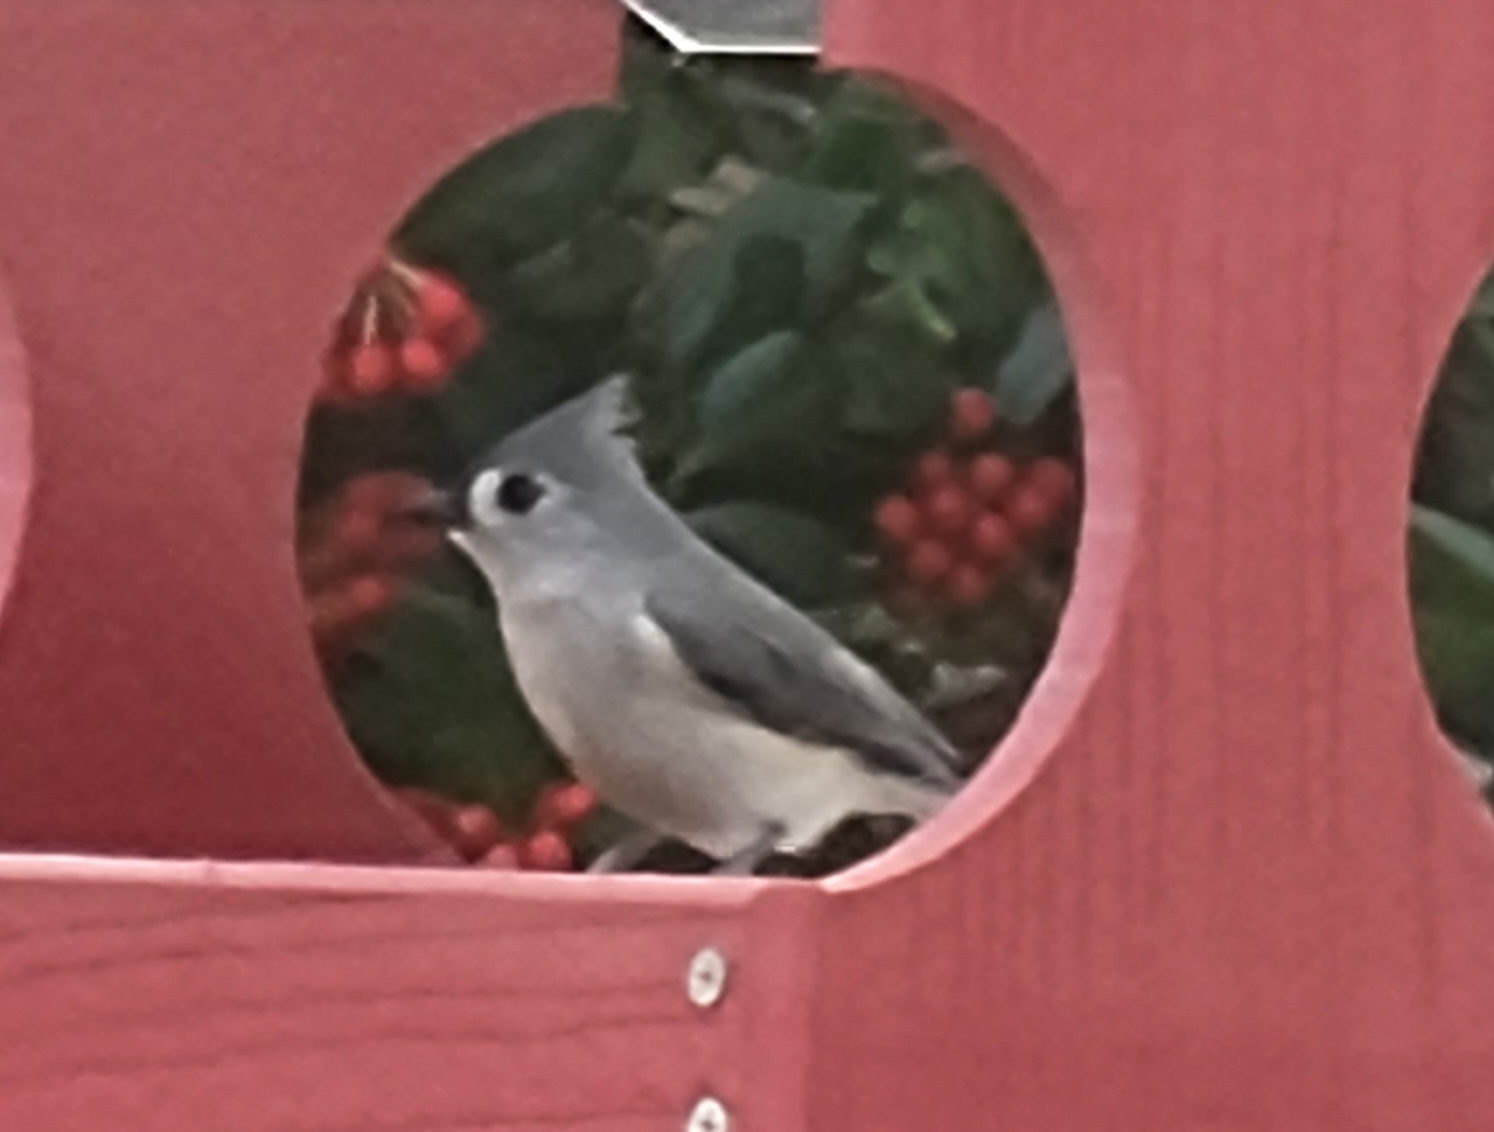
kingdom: Animalia
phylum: Chordata
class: Aves
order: Passeriformes
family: Paridae
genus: Baeolophus
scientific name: Baeolophus bicolor
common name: Tufted titmouse
